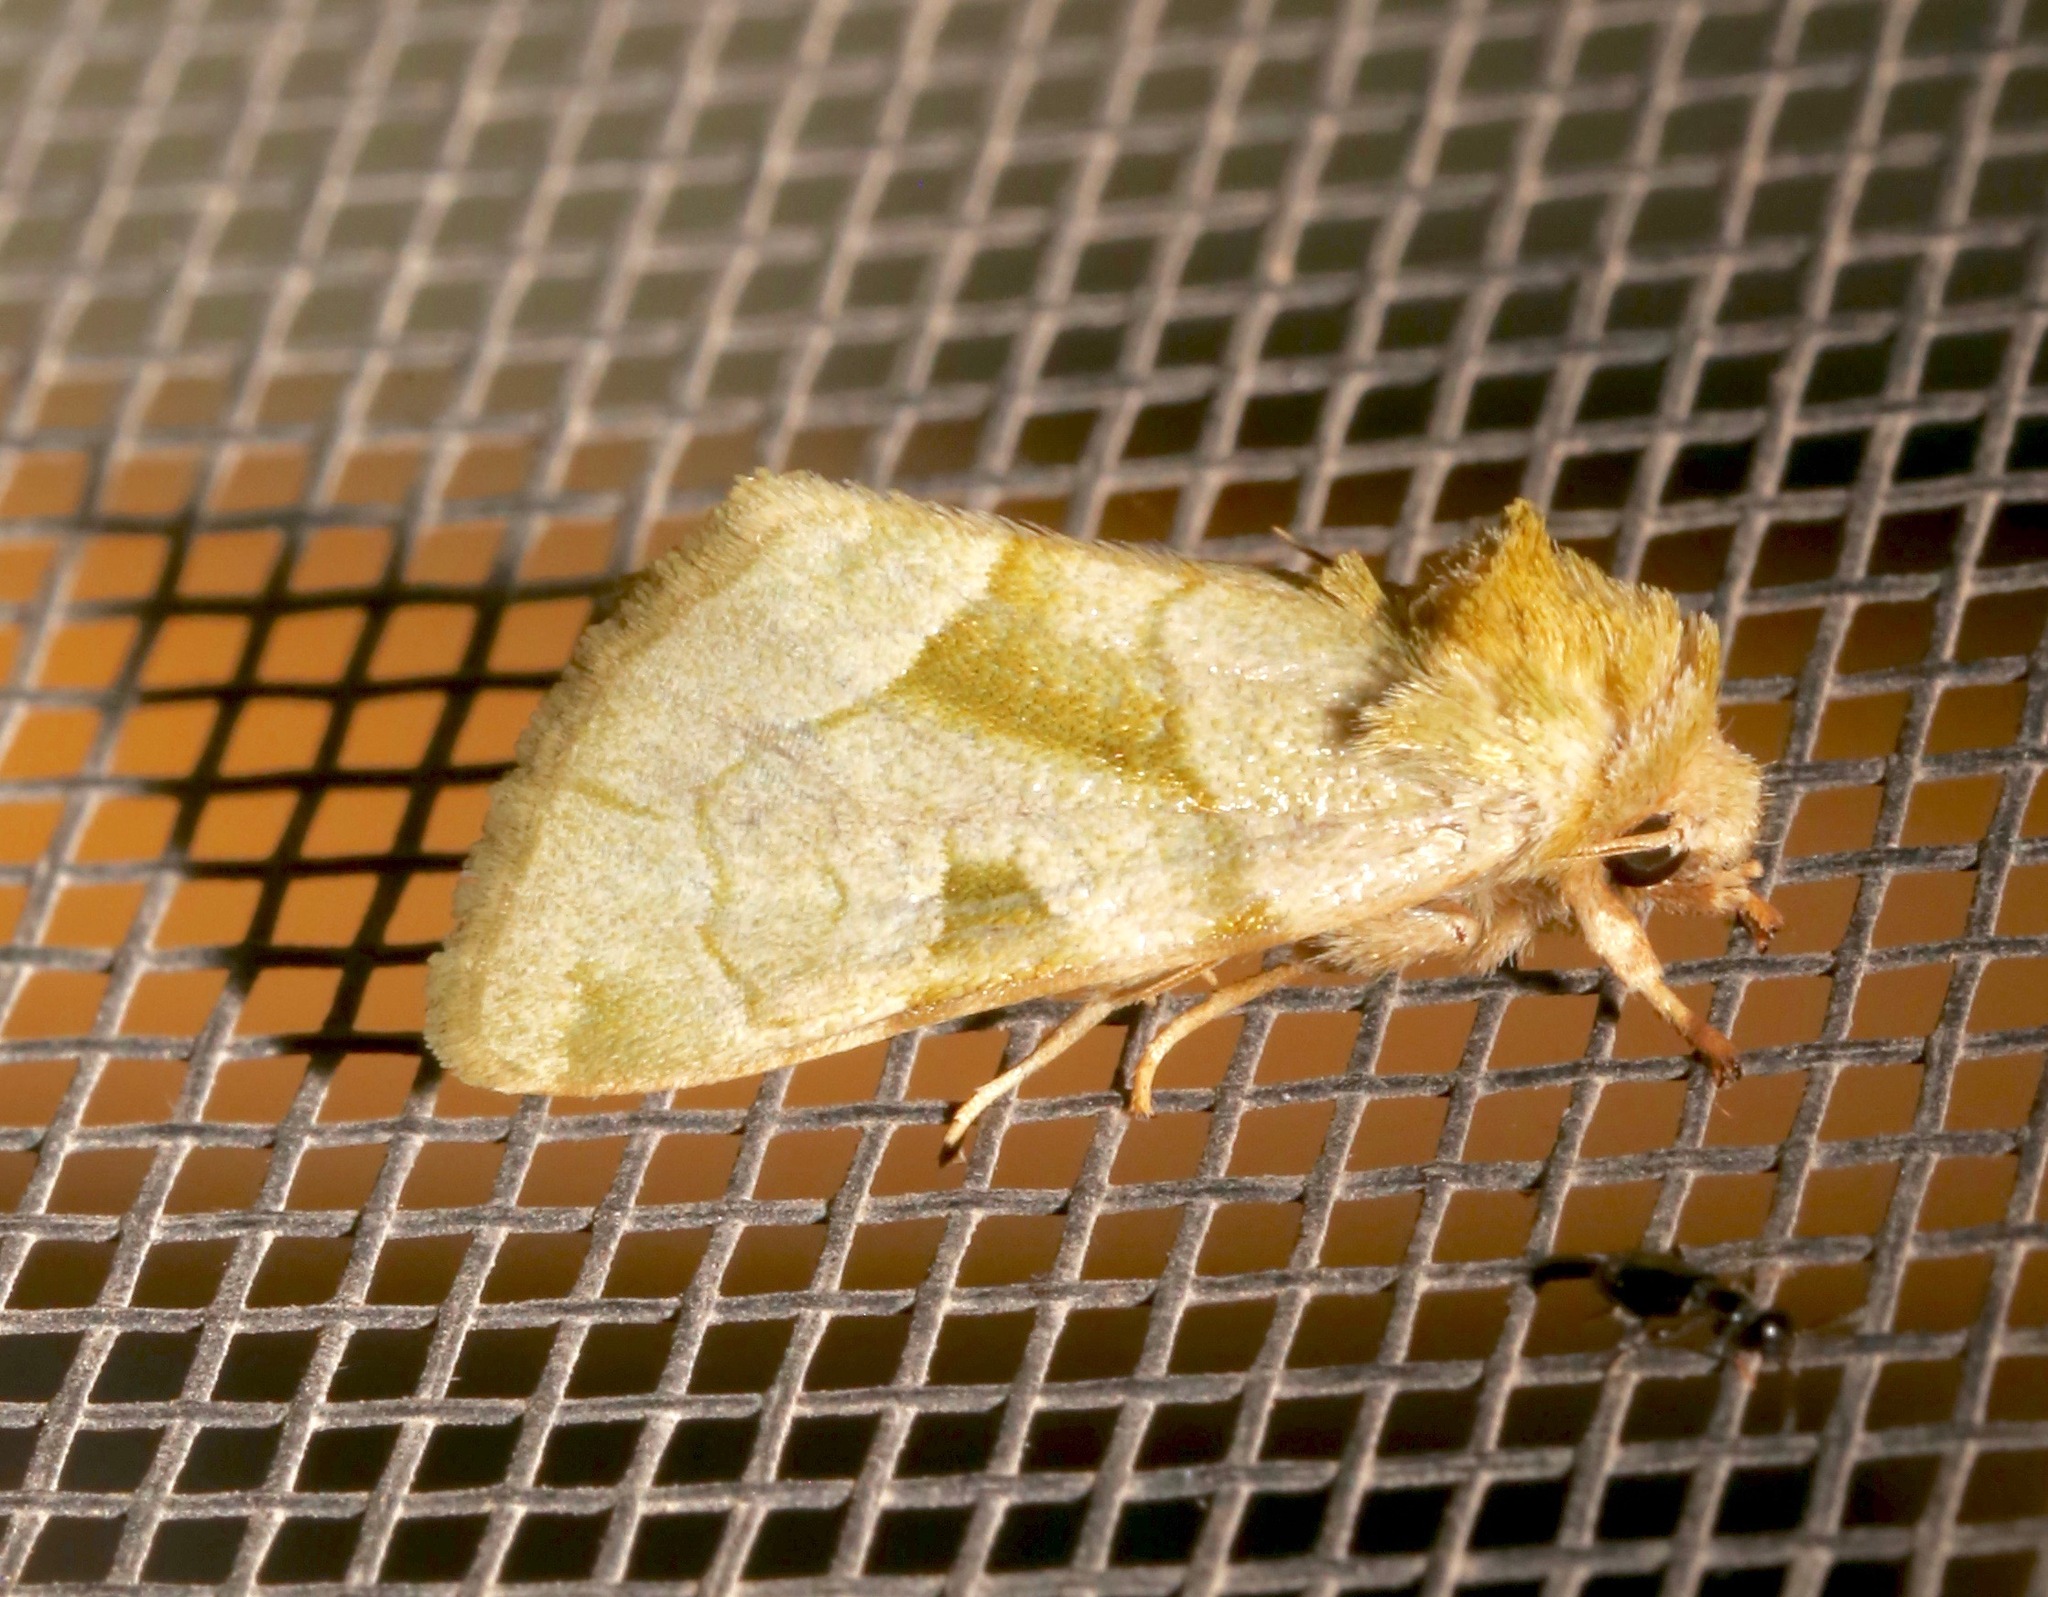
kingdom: Animalia
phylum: Arthropoda
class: Insecta
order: Lepidoptera
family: Noctuidae
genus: Oslaria
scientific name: Oslaria viridifera
